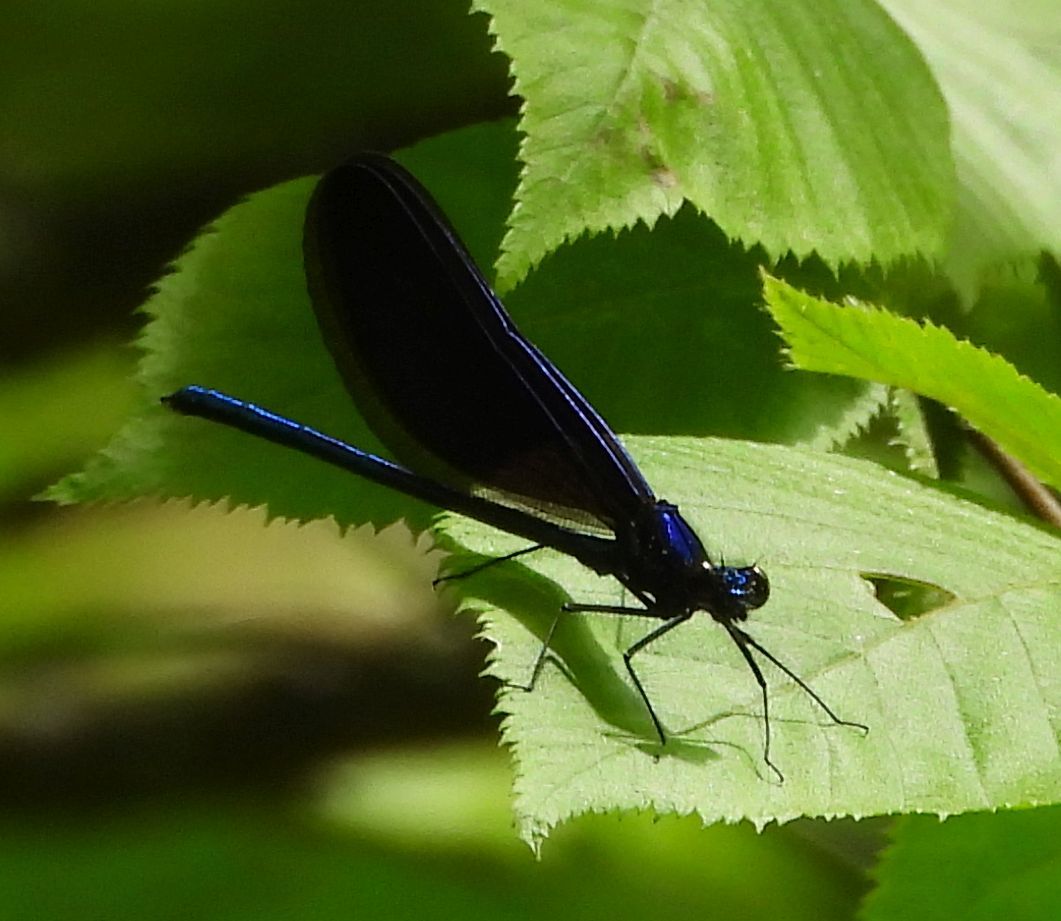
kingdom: Animalia
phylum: Arthropoda
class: Insecta
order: Odonata
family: Calopterygidae
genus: Calopteryx
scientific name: Calopteryx maculata
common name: Ebony jewelwing
